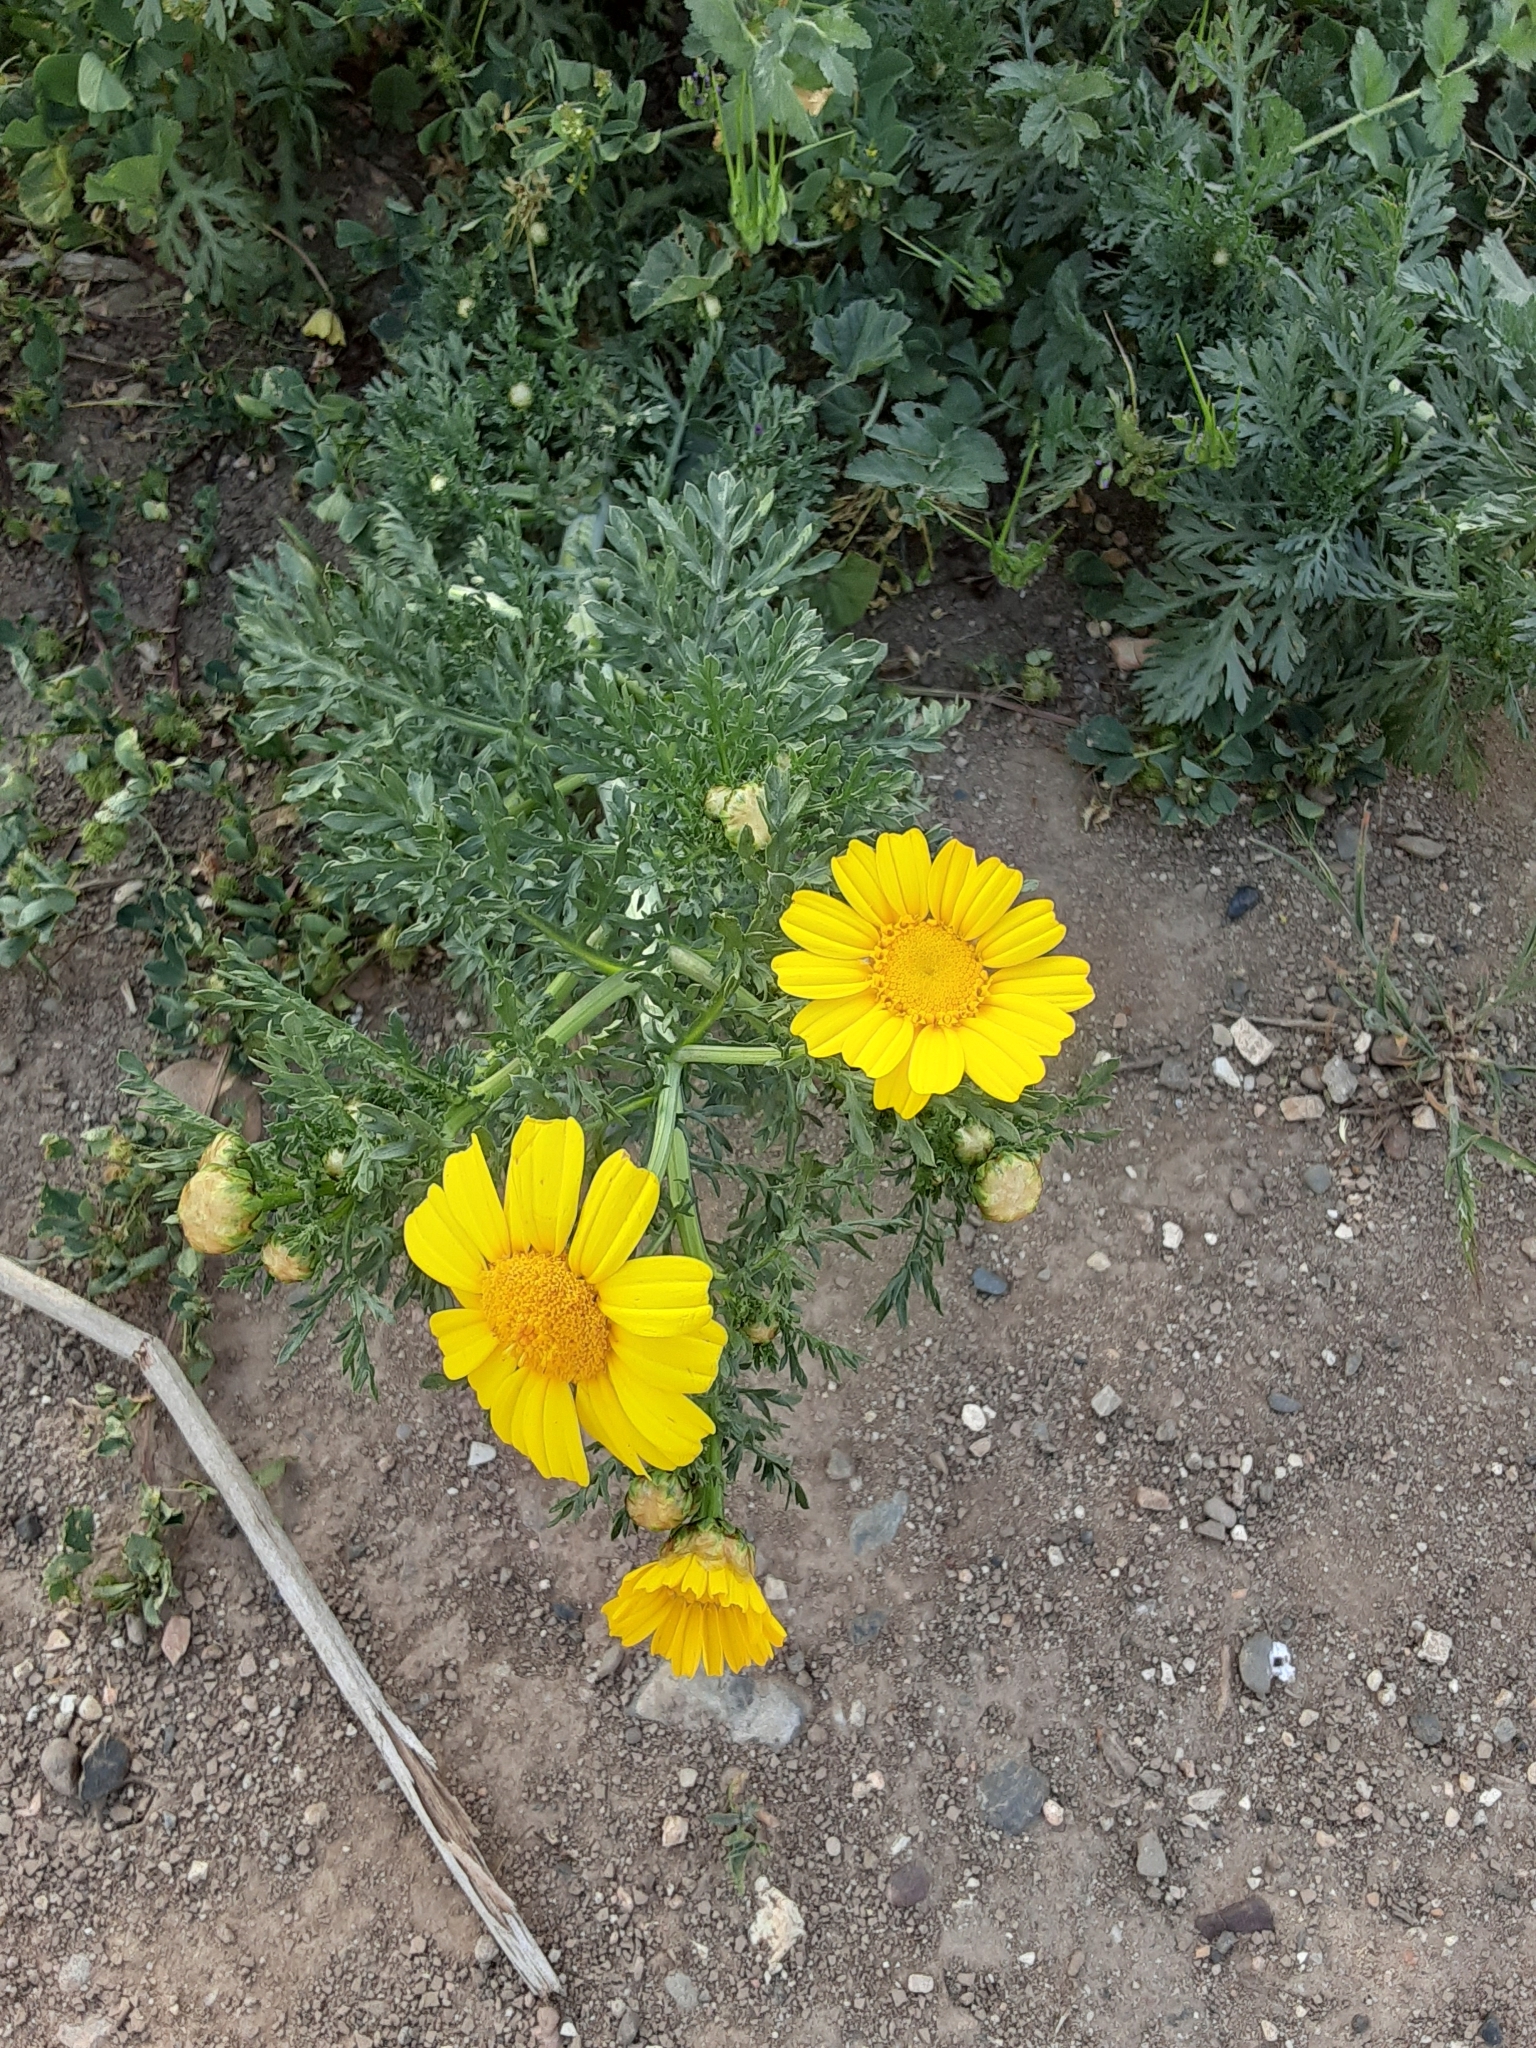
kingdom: Plantae
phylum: Tracheophyta
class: Magnoliopsida
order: Asterales
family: Asteraceae
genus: Glebionis
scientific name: Glebionis coronaria
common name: Crowndaisy
